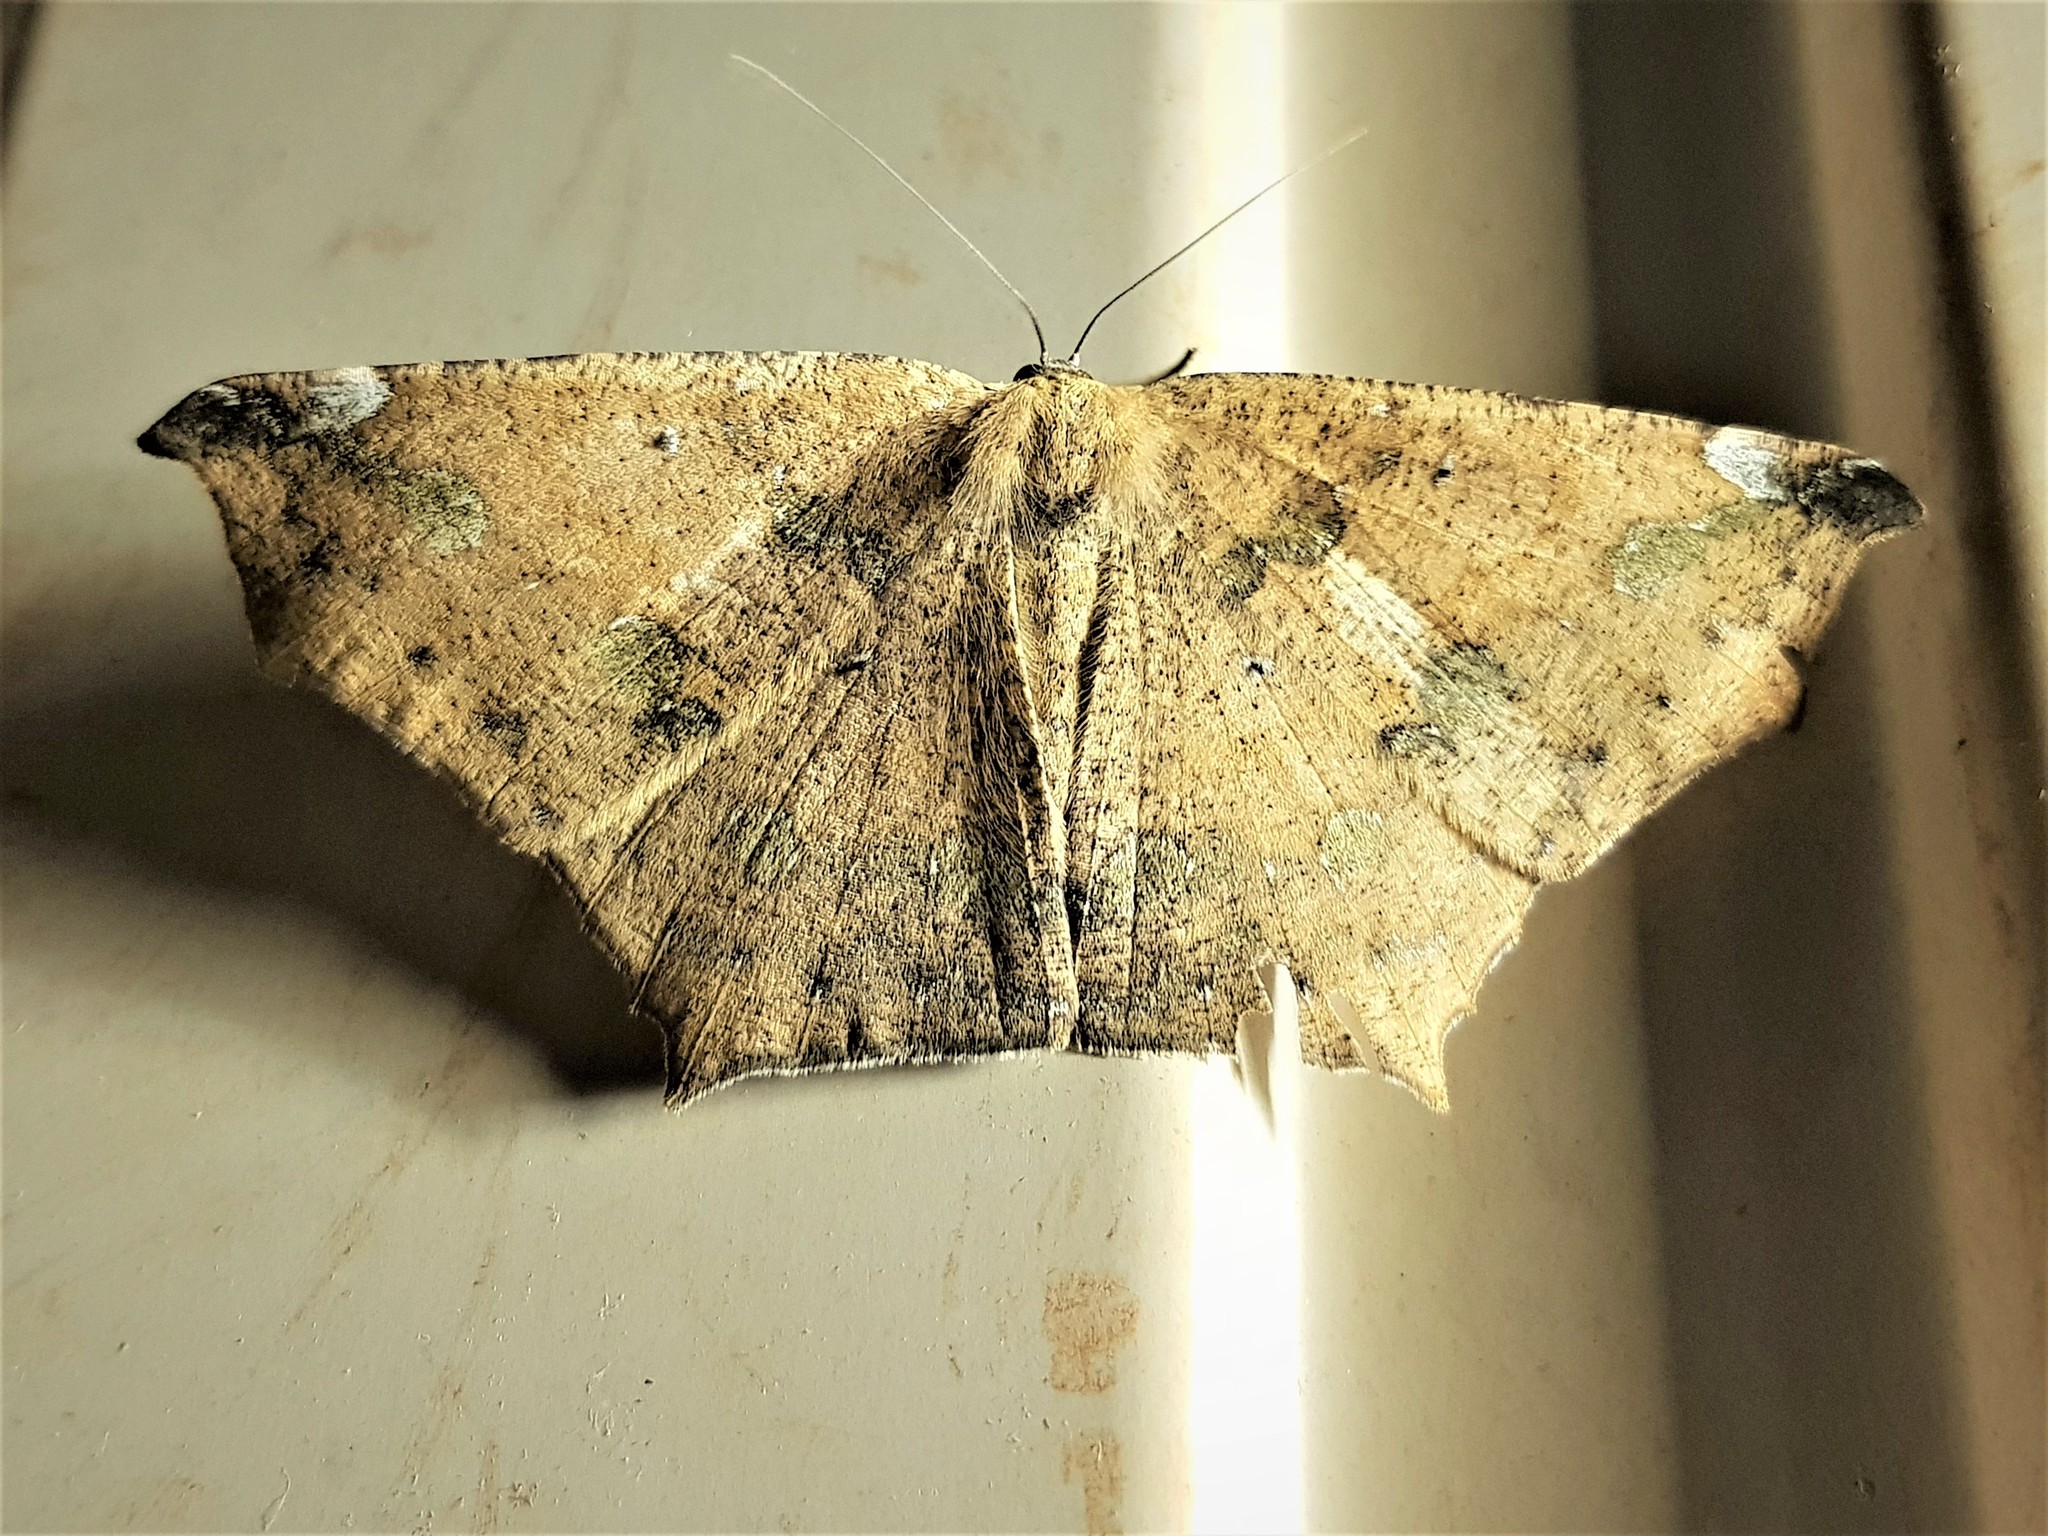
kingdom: Animalia
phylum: Arthropoda
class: Insecta
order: Lepidoptera
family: Geometridae
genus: Paragonia
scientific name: Paragonia tasima
